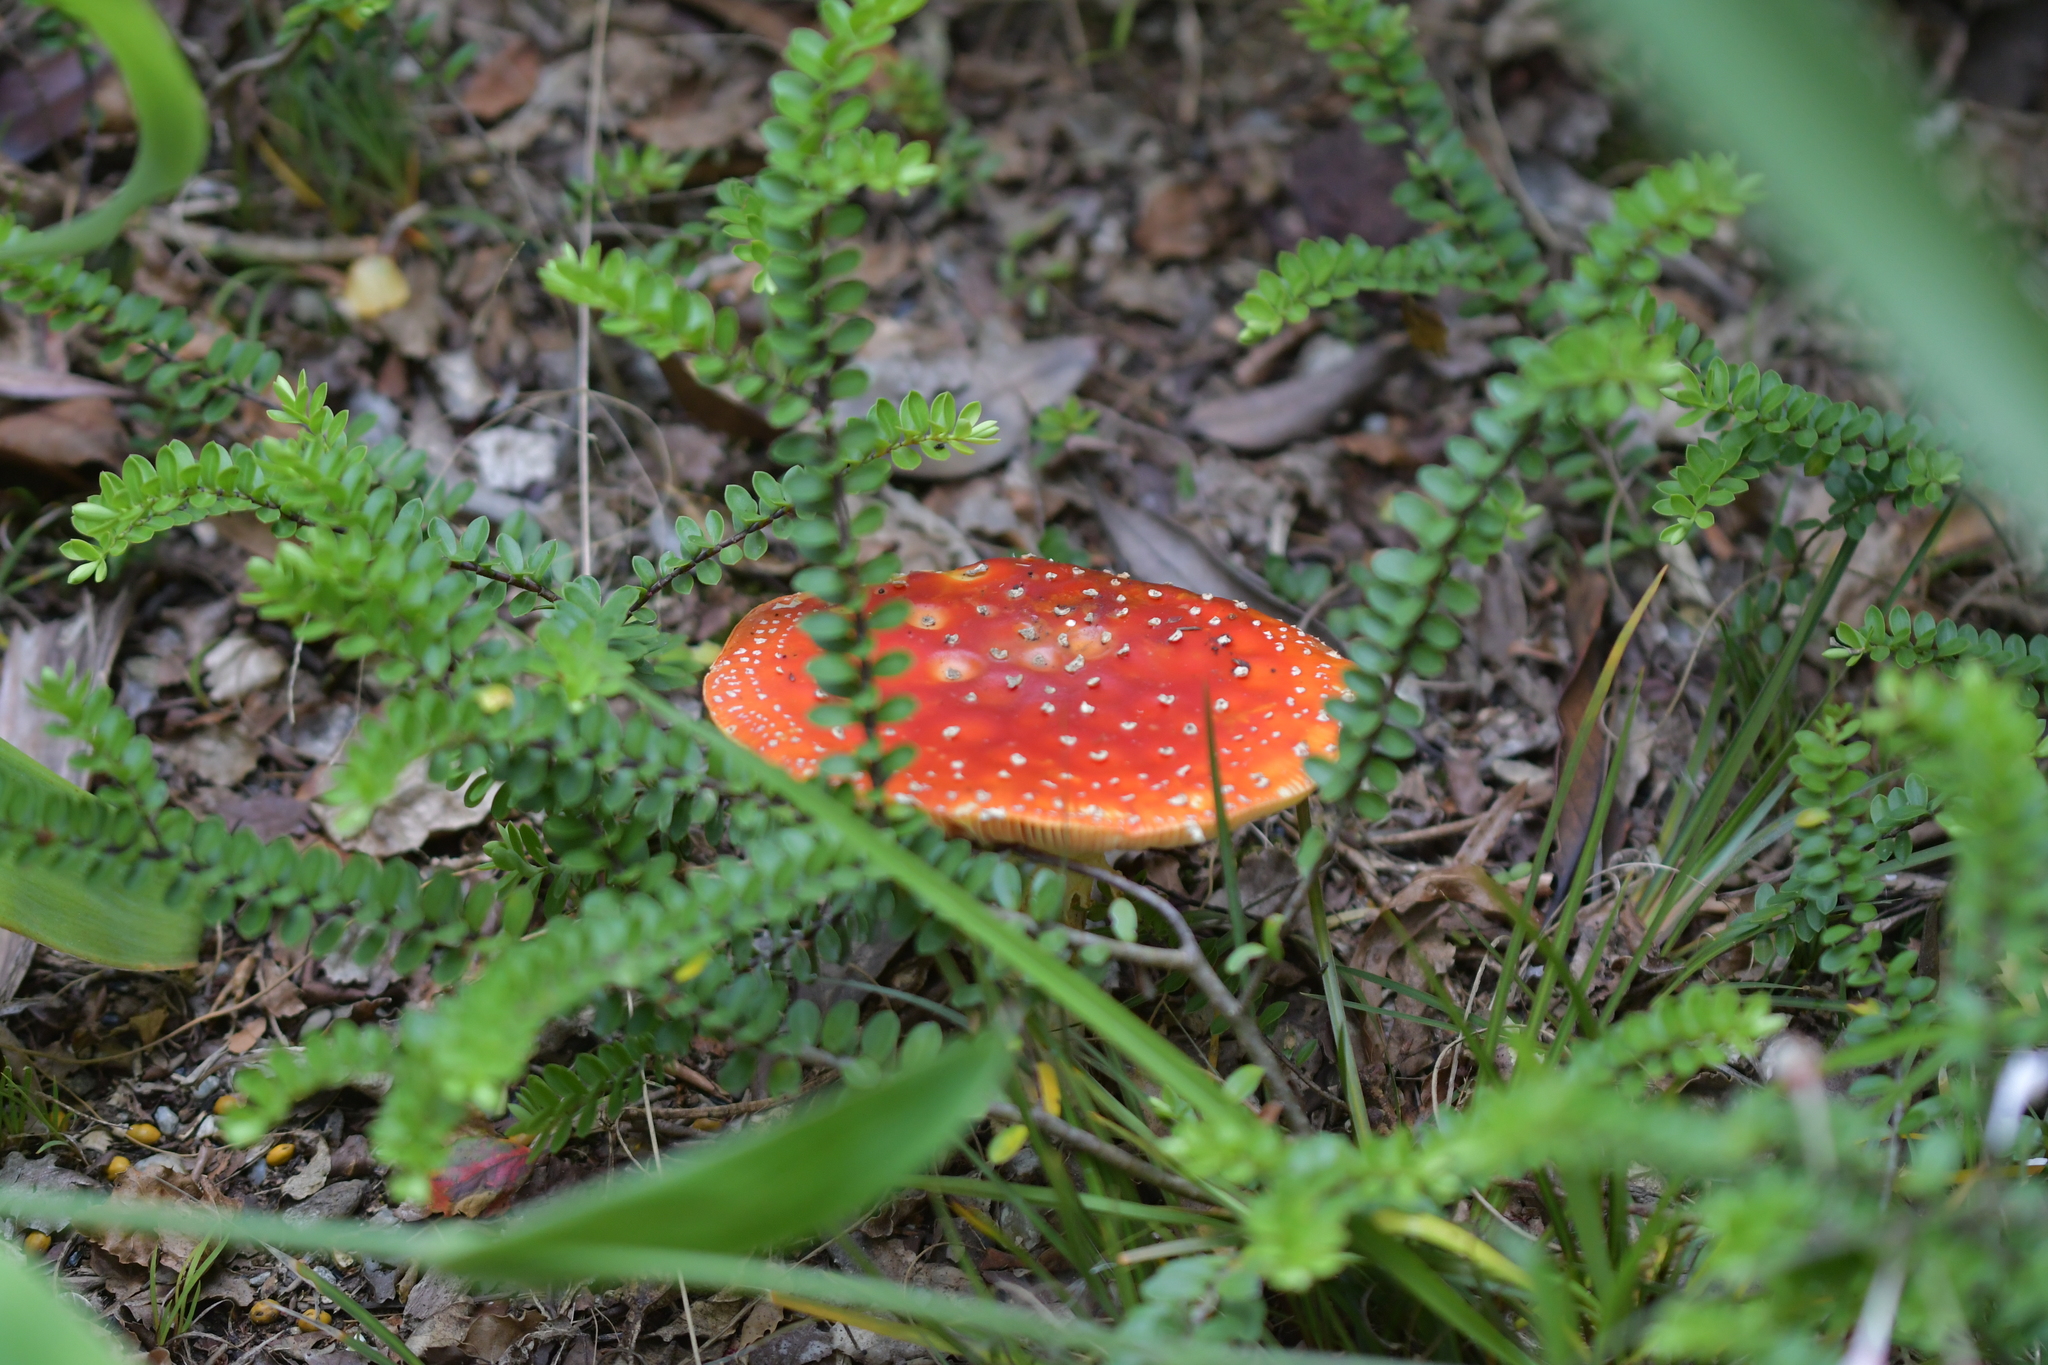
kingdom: Fungi
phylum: Basidiomycota
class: Agaricomycetes
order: Agaricales
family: Amanitaceae
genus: Amanita
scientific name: Amanita muscaria
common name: Fly agaric
